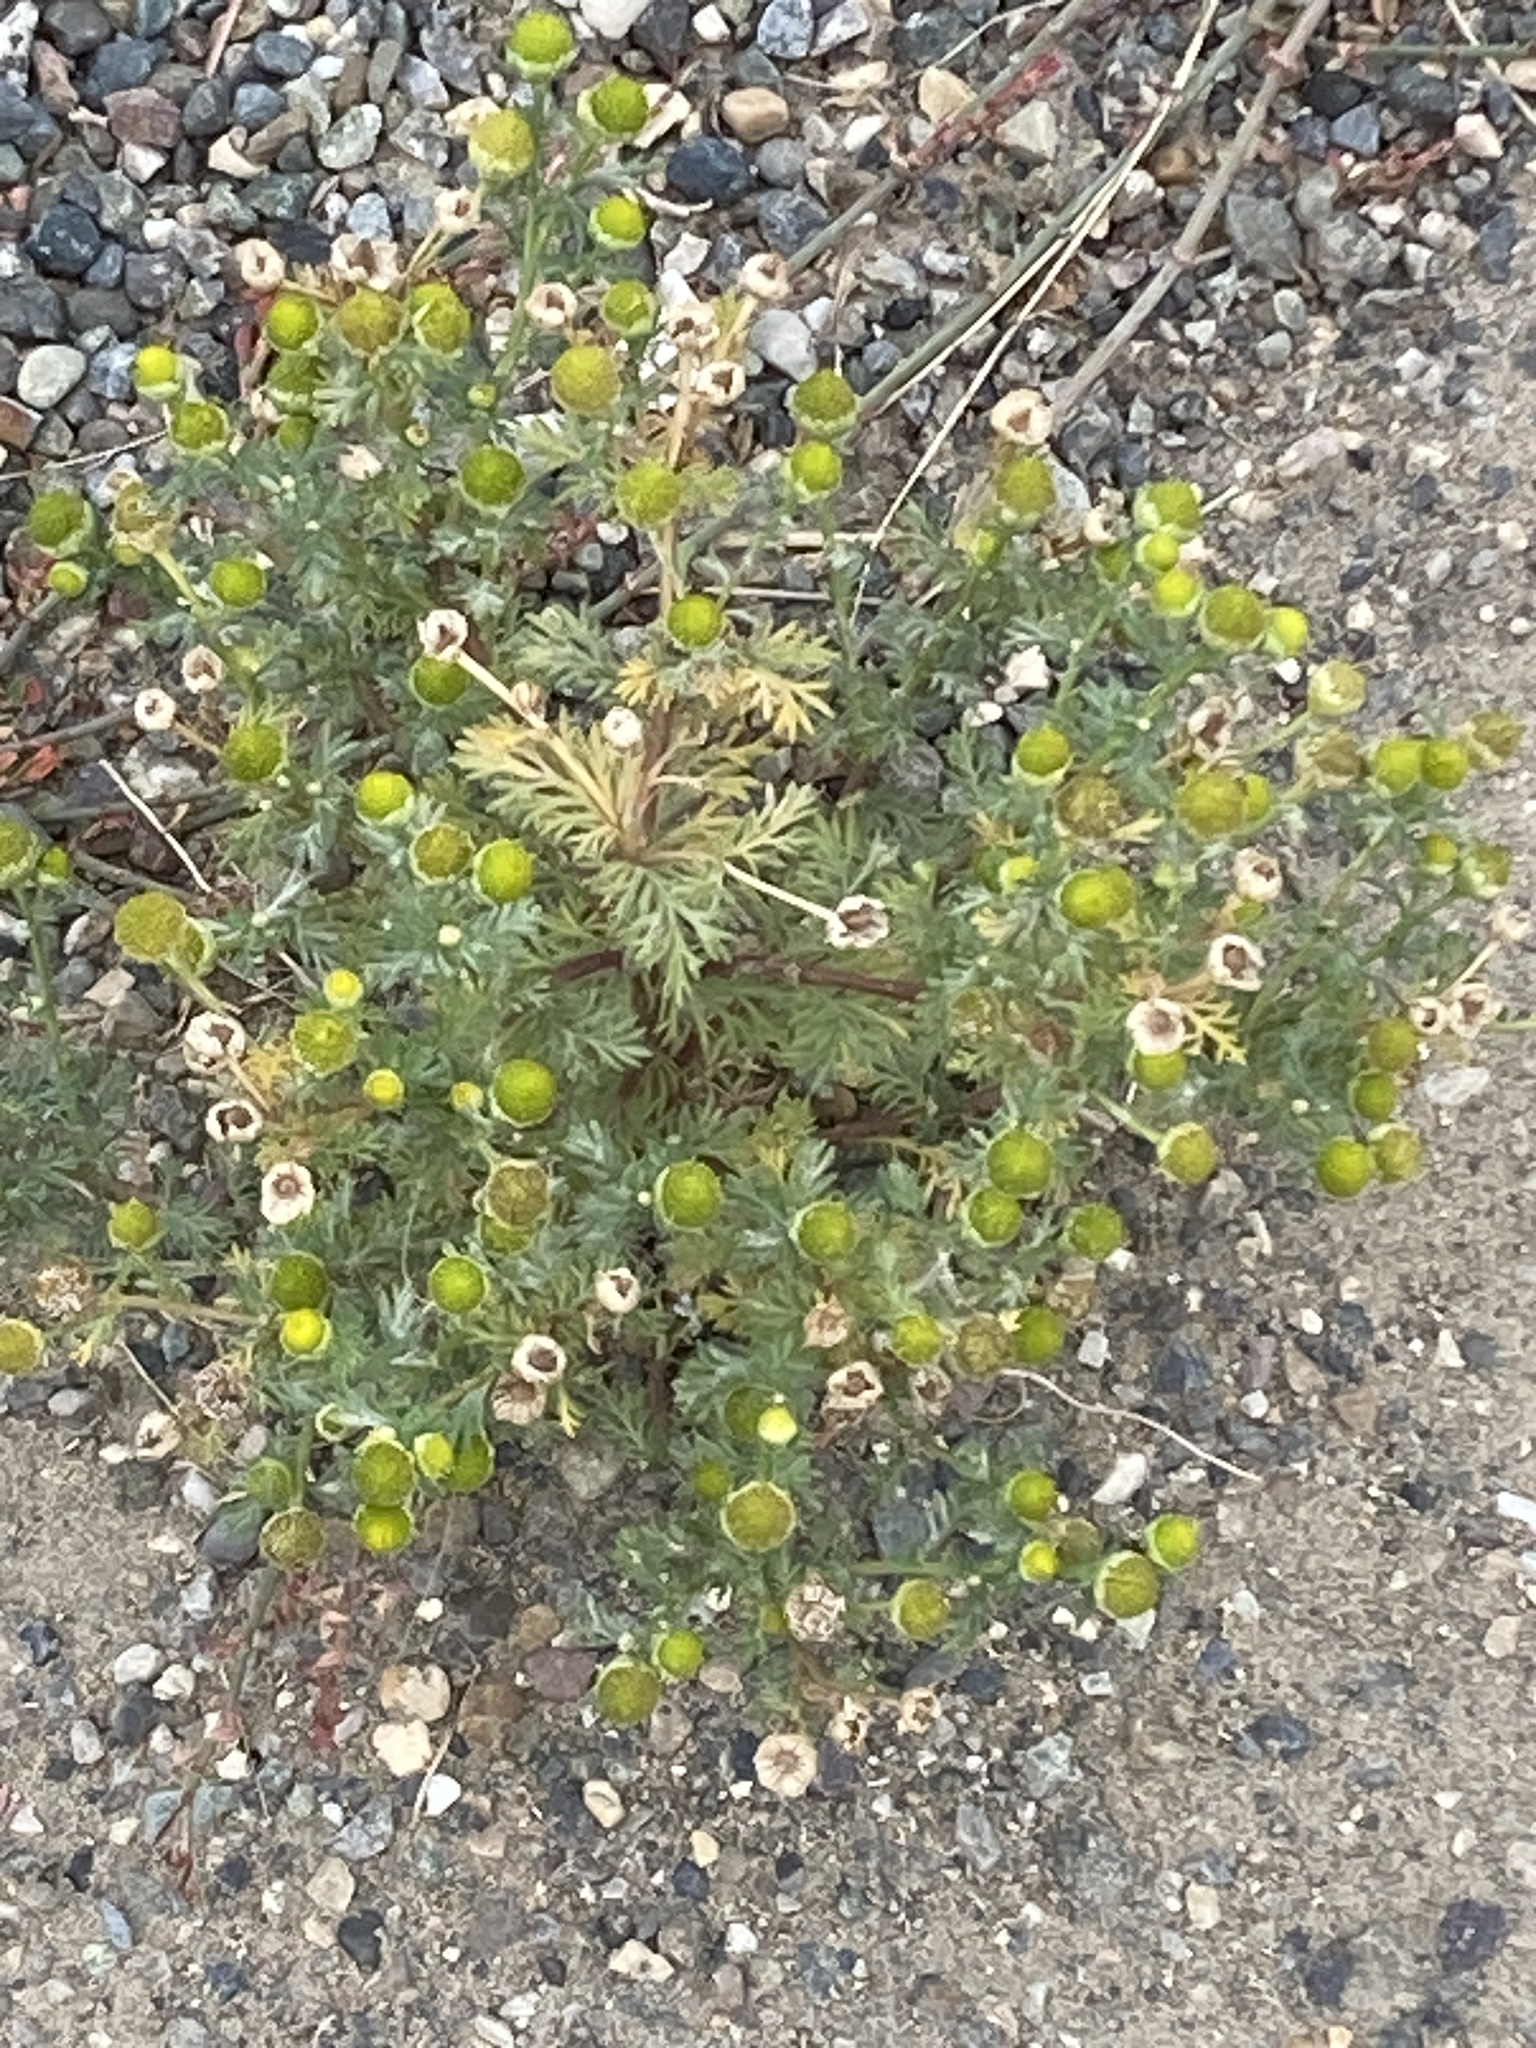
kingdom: Plantae
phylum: Tracheophyta
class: Magnoliopsida
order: Asterales
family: Asteraceae
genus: Matricaria
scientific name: Matricaria discoidea
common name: Disc mayweed
